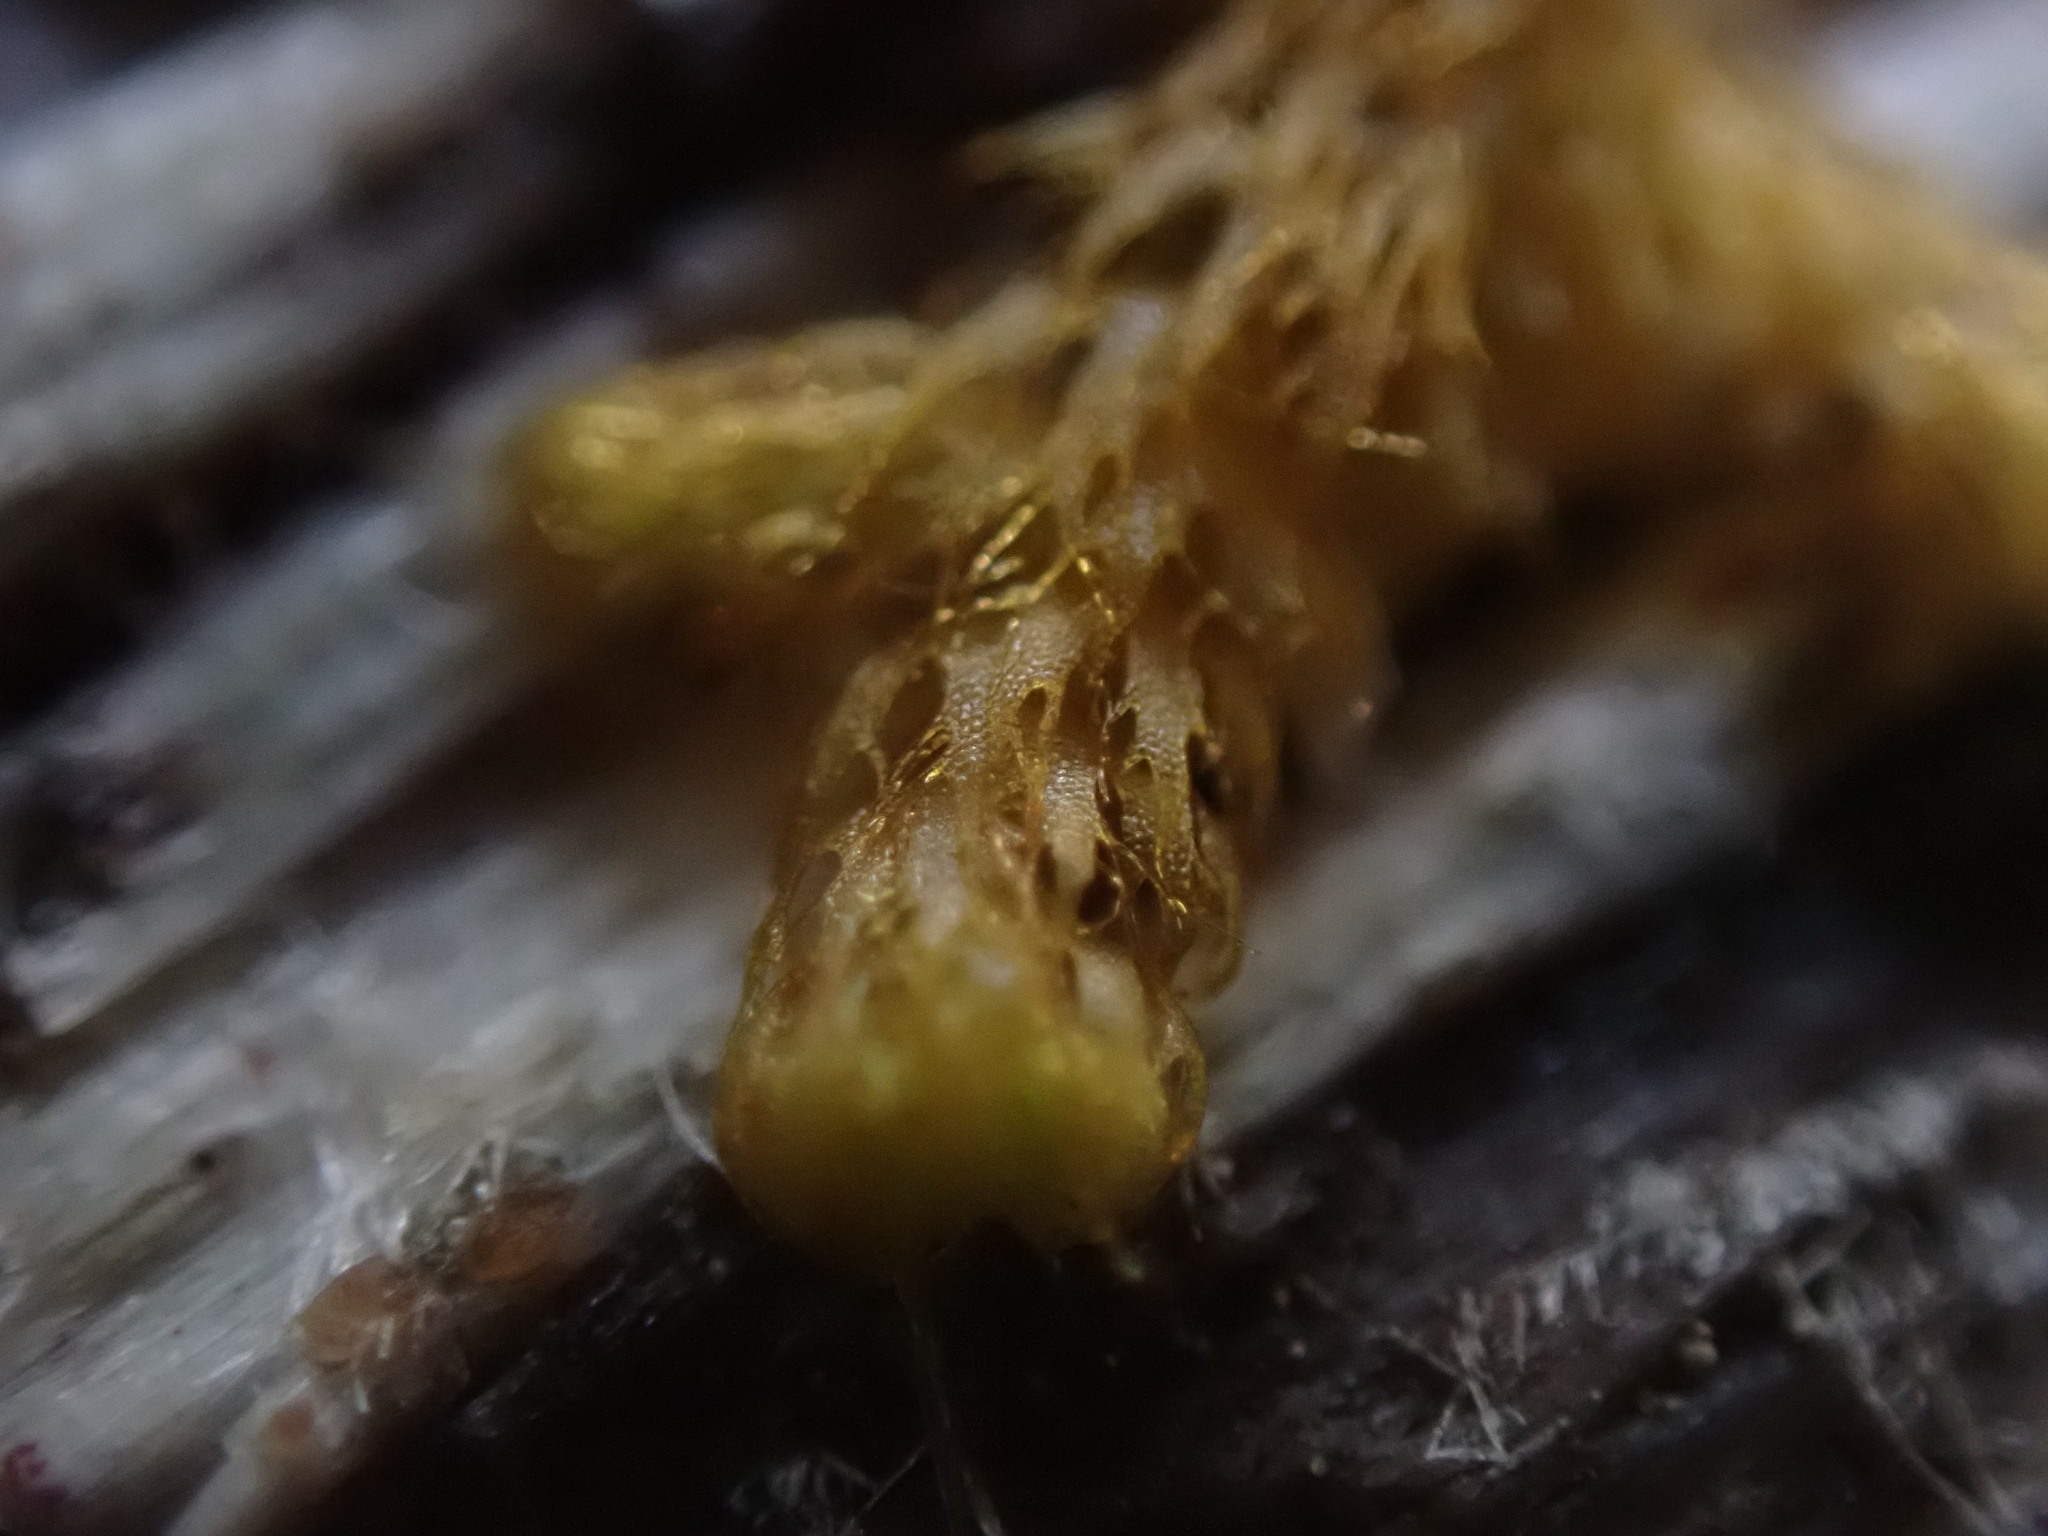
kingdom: Plantae
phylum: Marchantiophyta
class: Jungermanniopsida
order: Ptilidiales
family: Ptilidiaceae
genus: Ptilidium
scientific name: Ptilidium californicum
